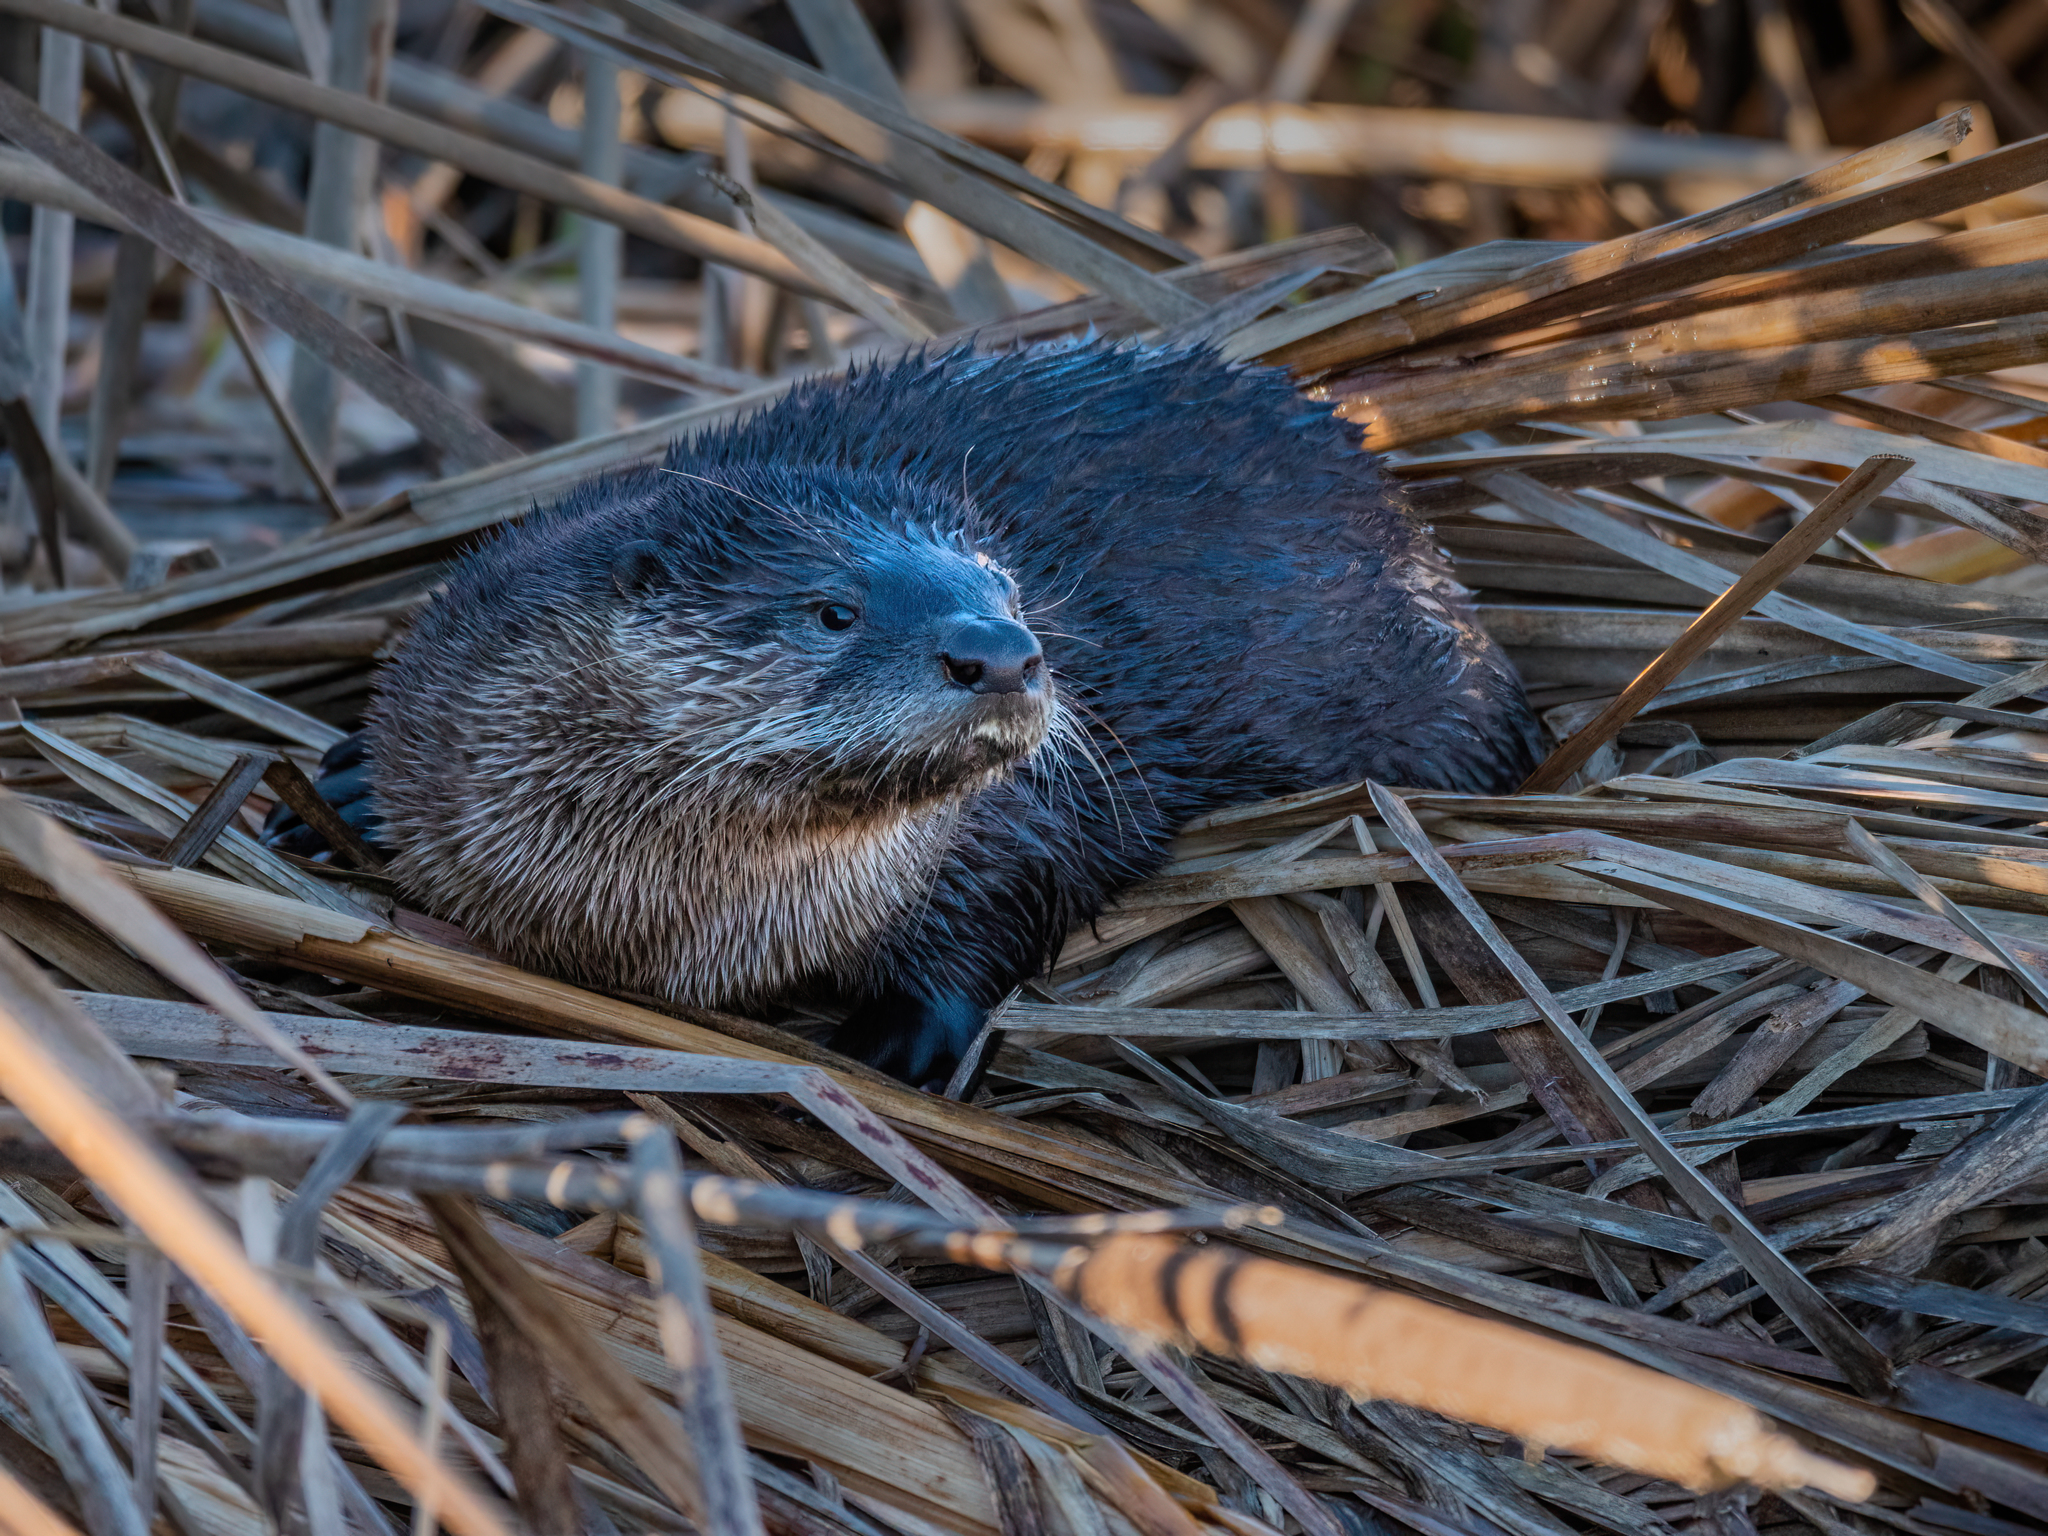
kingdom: Animalia
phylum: Chordata
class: Mammalia
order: Carnivora
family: Mustelidae
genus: Lontra
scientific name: Lontra canadensis
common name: North american river otter
